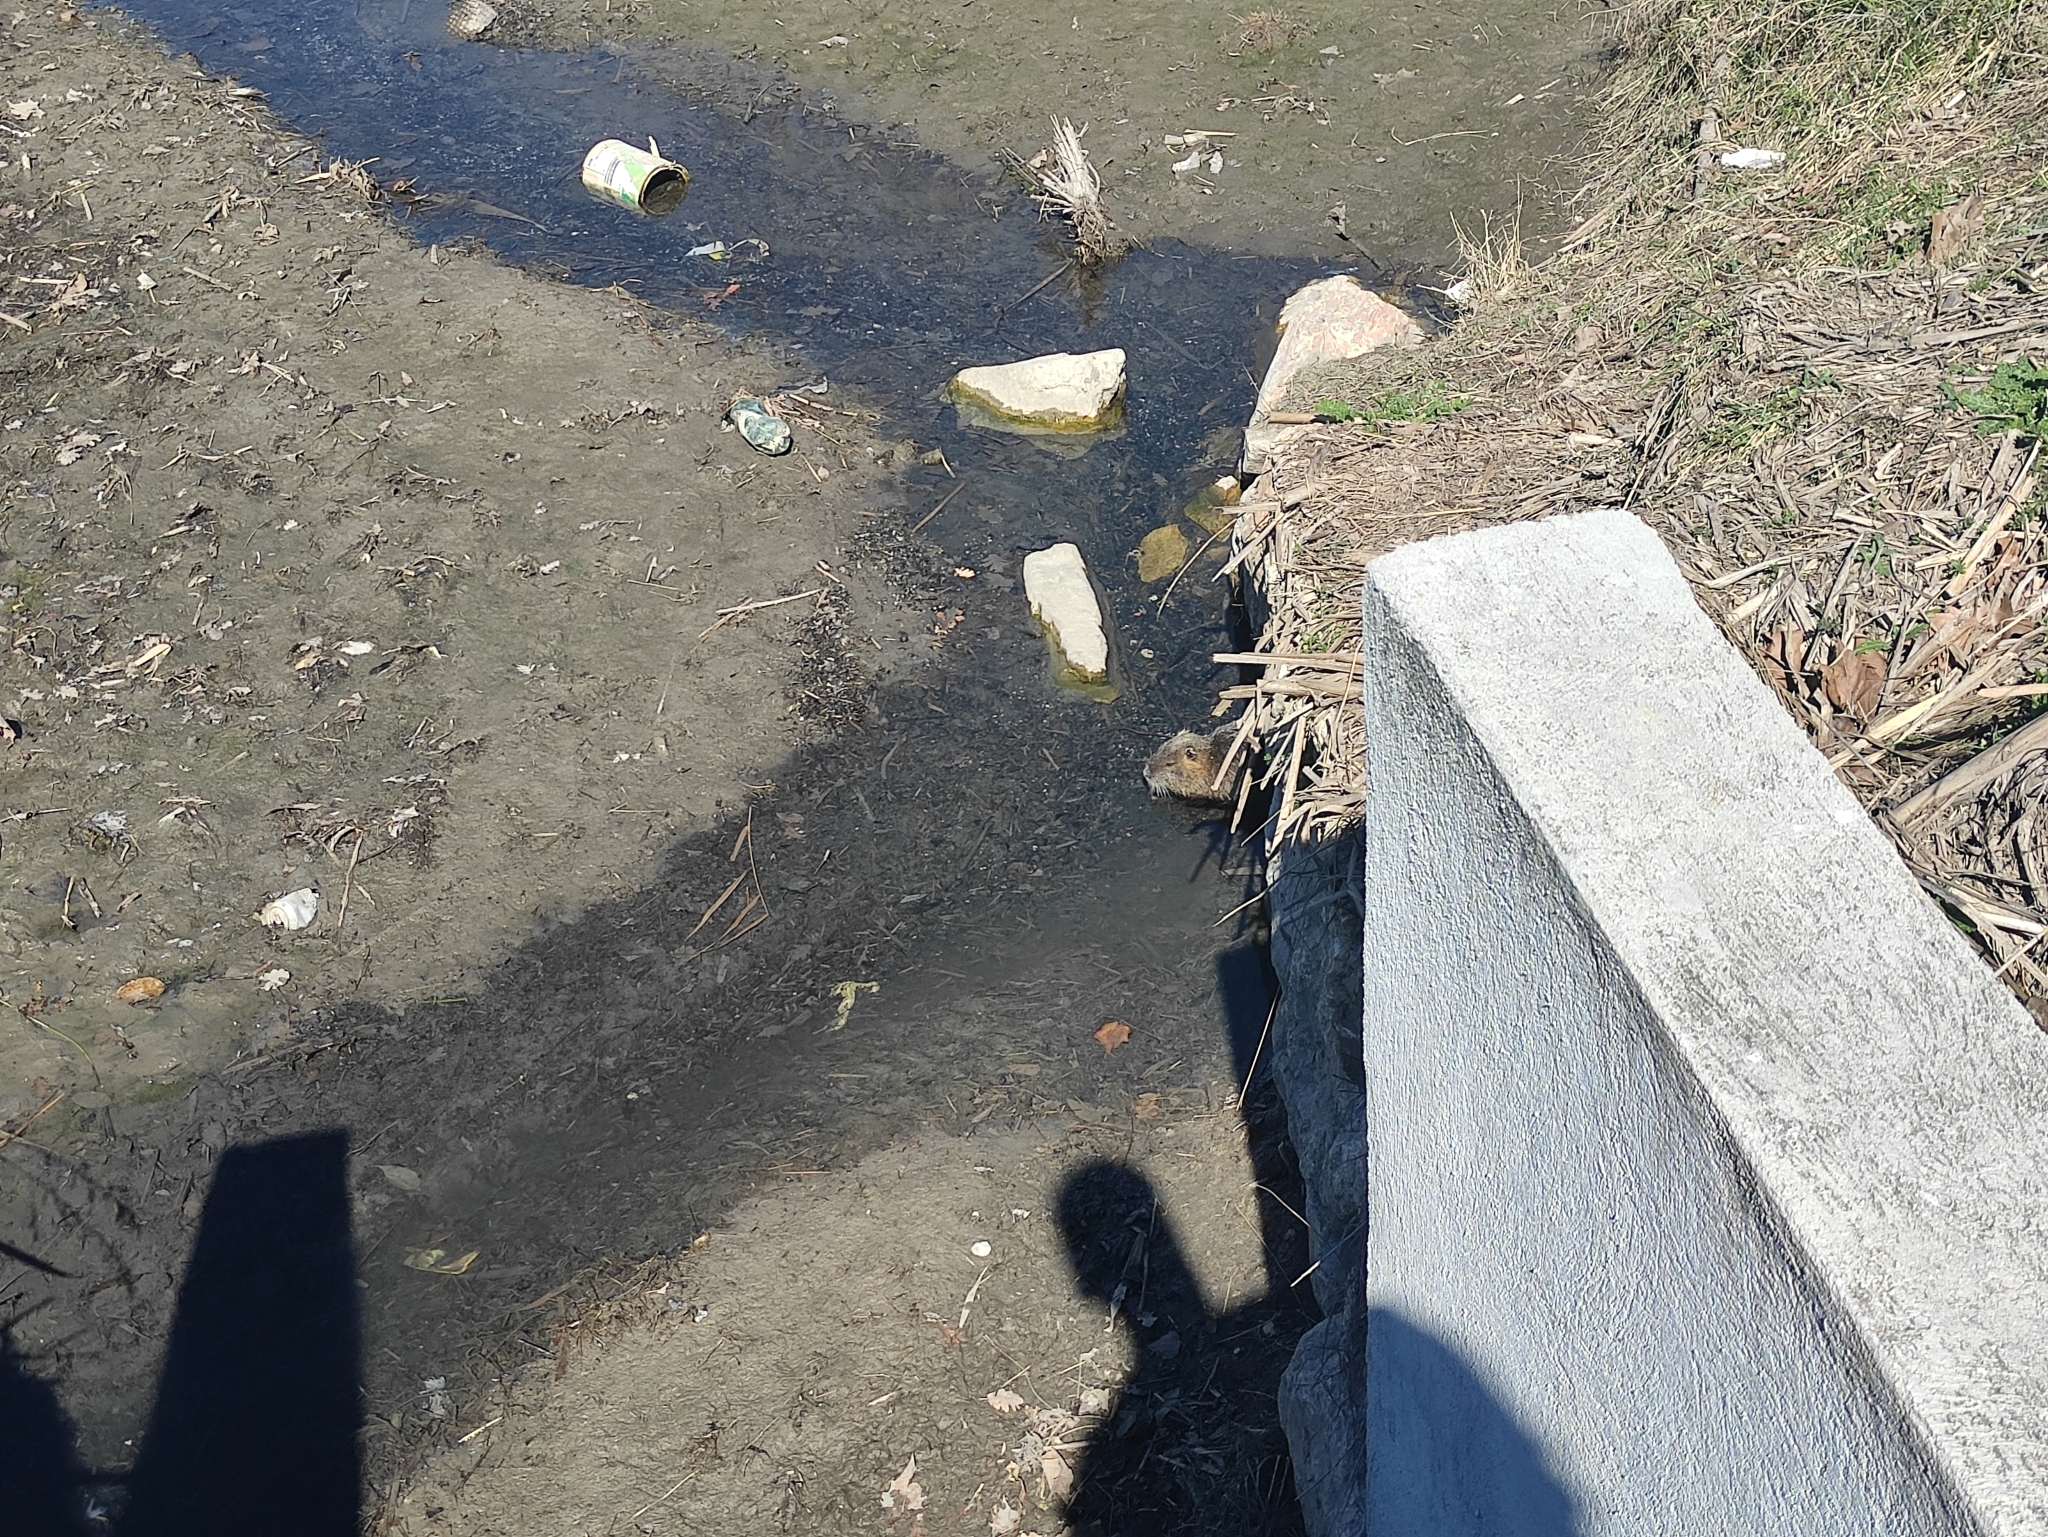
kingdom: Animalia
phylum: Chordata
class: Mammalia
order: Rodentia
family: Myocastoridae
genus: Myocastor
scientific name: Myocastor coypus
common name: Coypu
